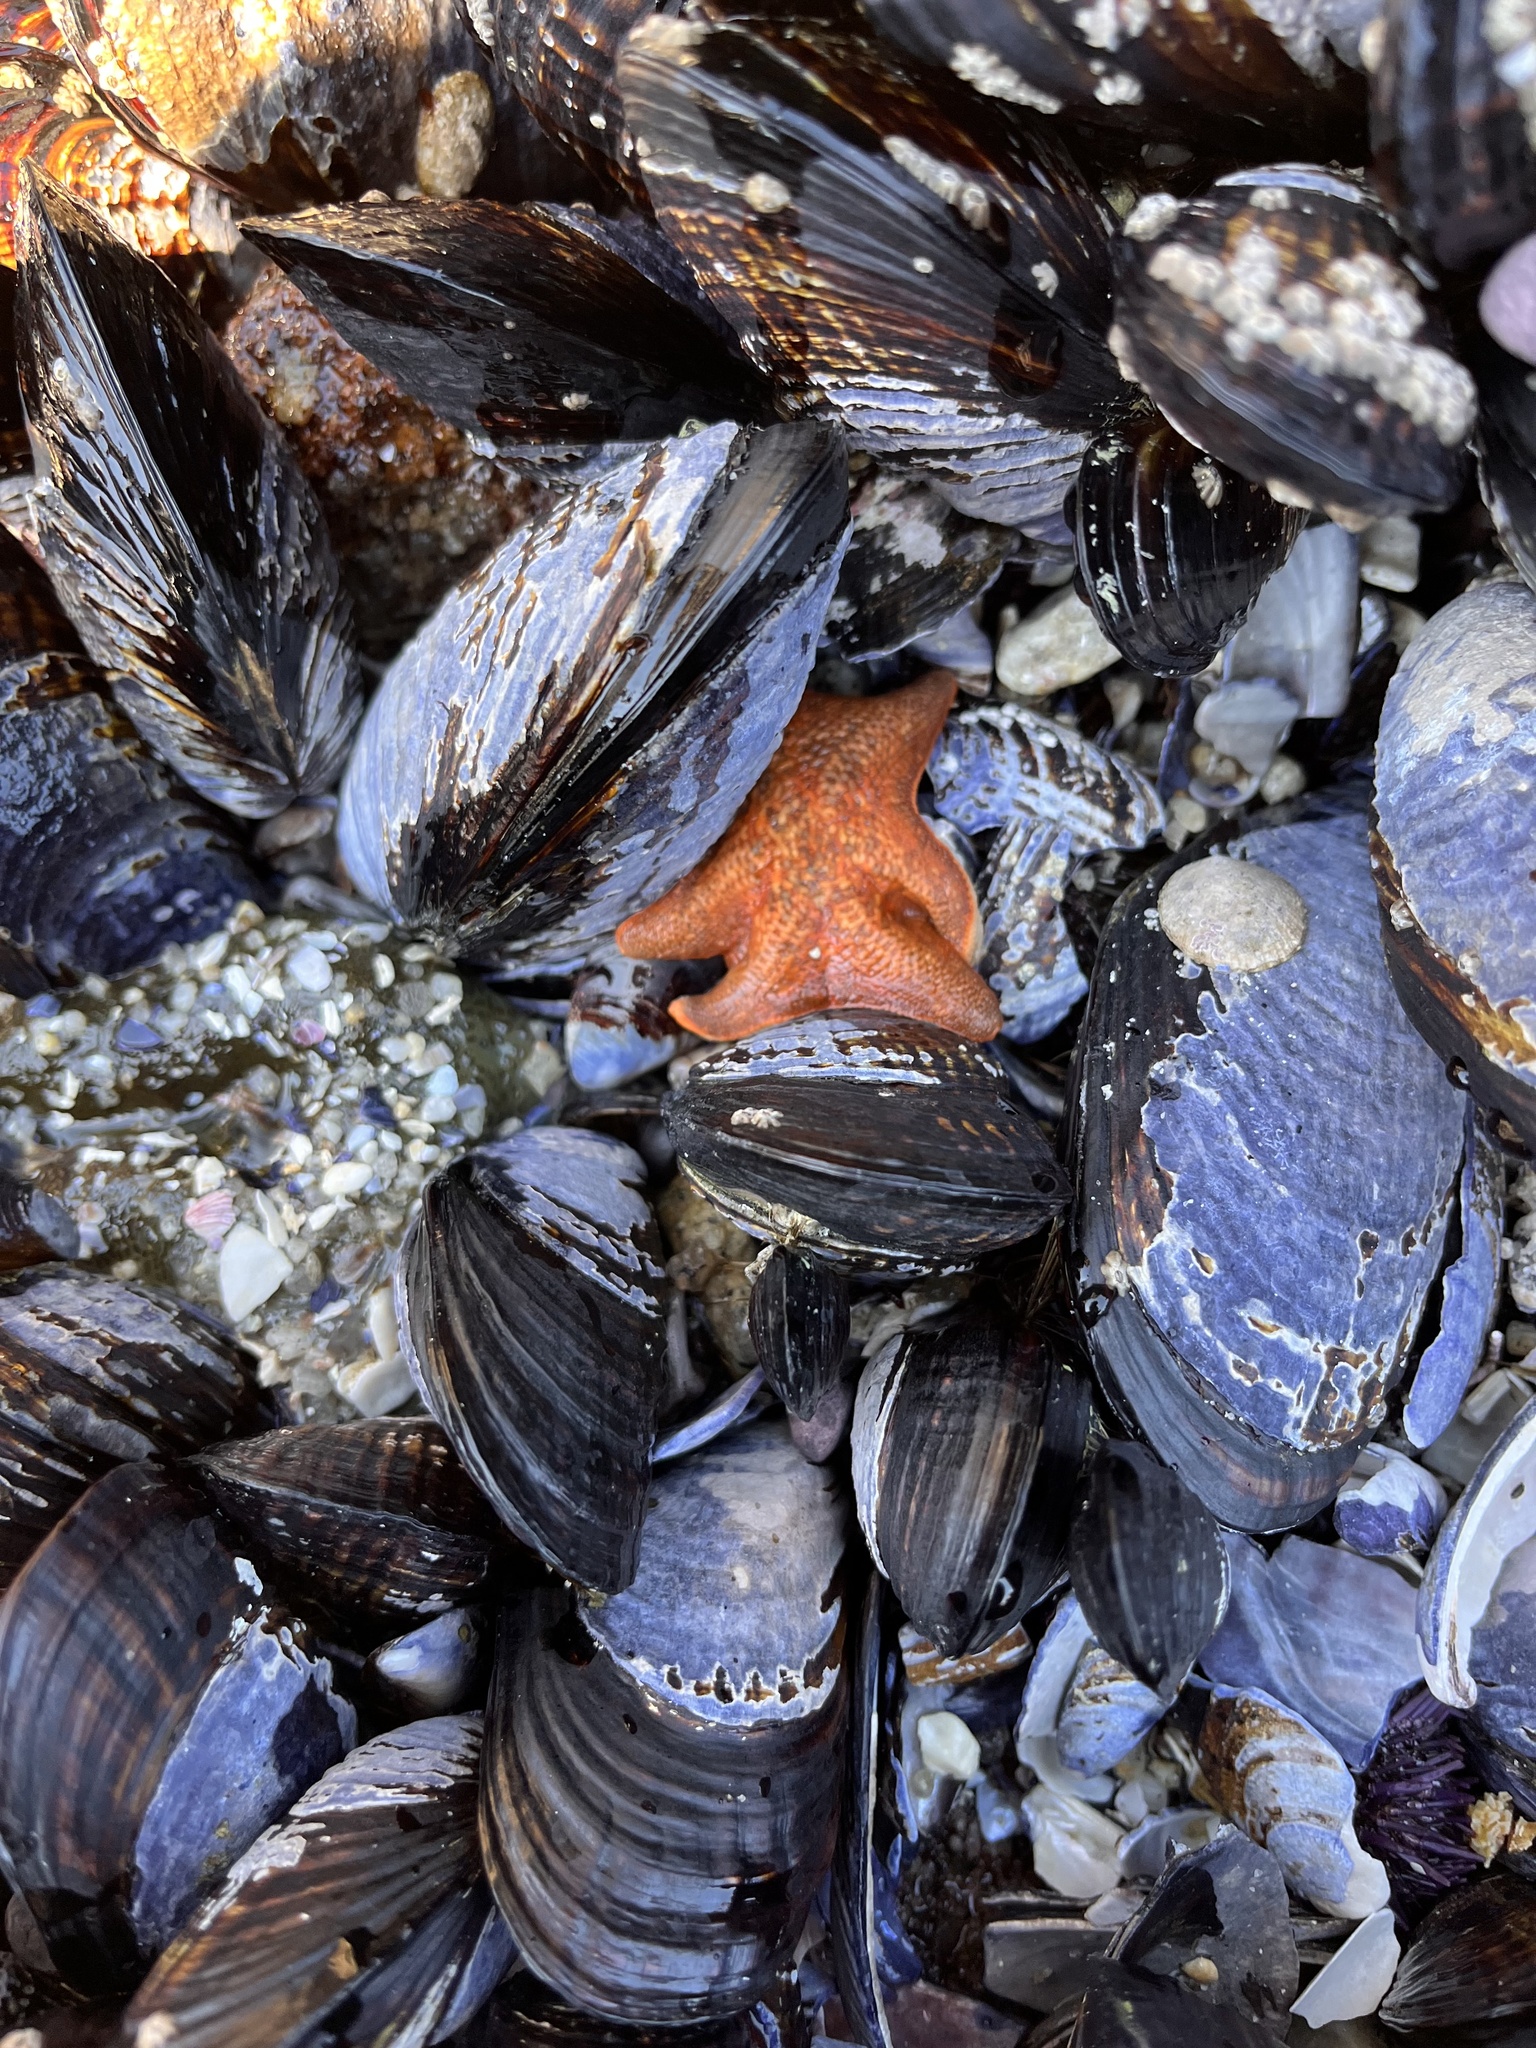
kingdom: Animalia
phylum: Echinodermata
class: Asteroidea
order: Valvatida
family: Asterinidae
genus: Patiria
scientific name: Patiria miniata
